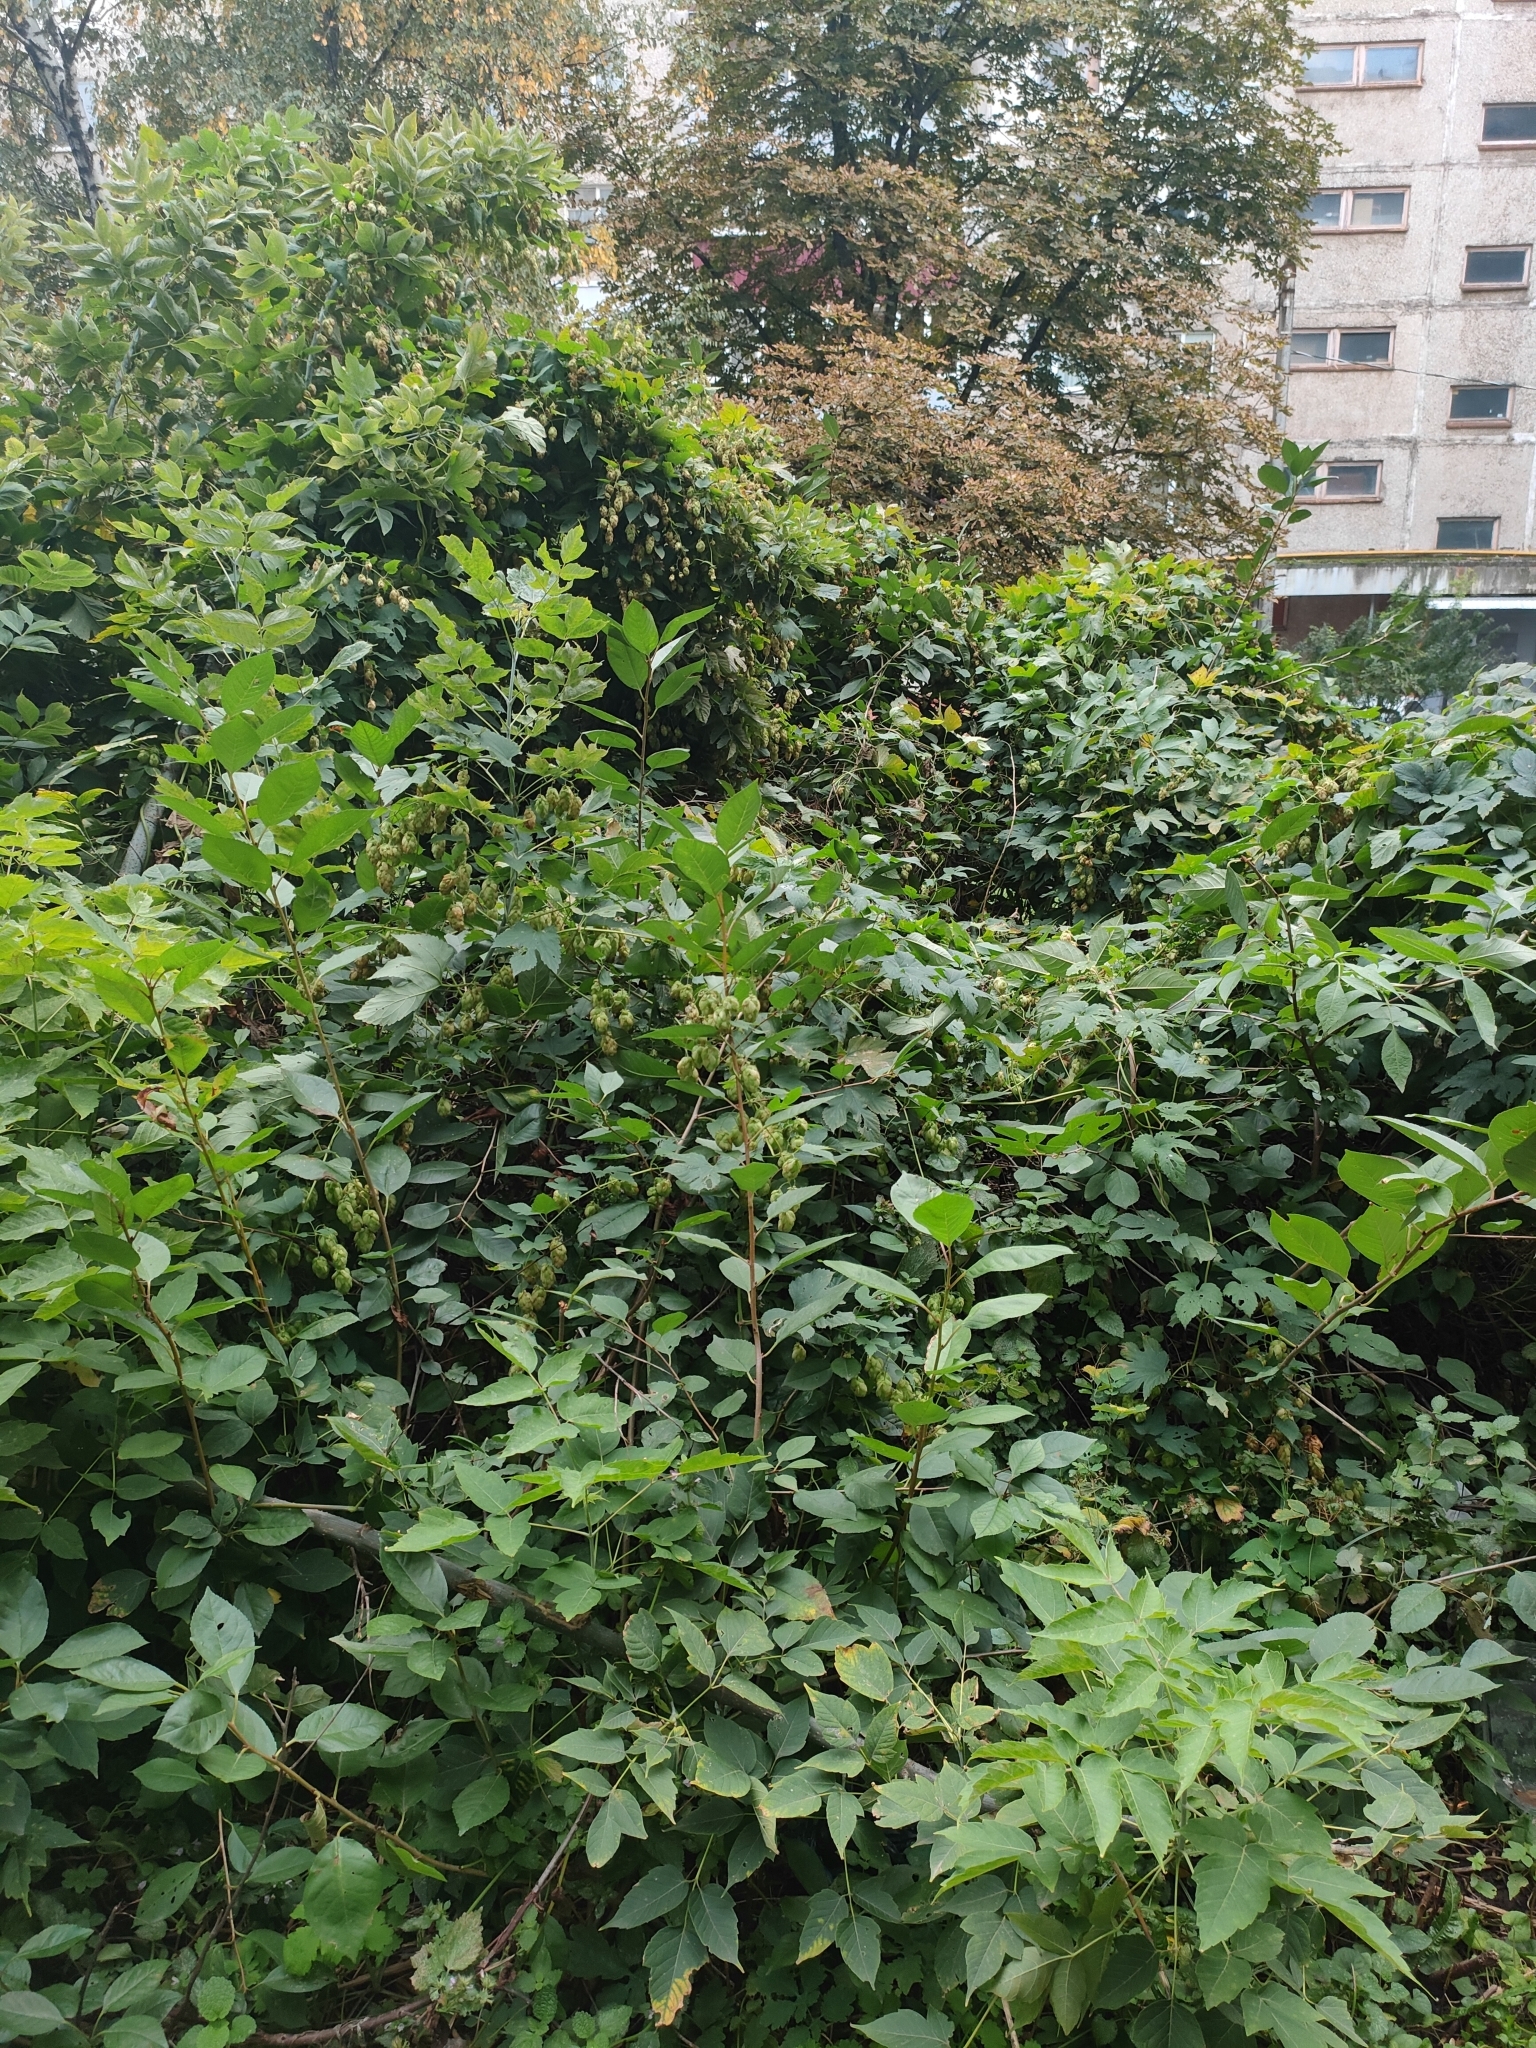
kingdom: Plantae
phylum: Tracheophyta
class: Magnoliopsida
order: Rosales
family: Cannabaceae
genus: Humulus
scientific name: Humulus lupulus
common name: Hop
